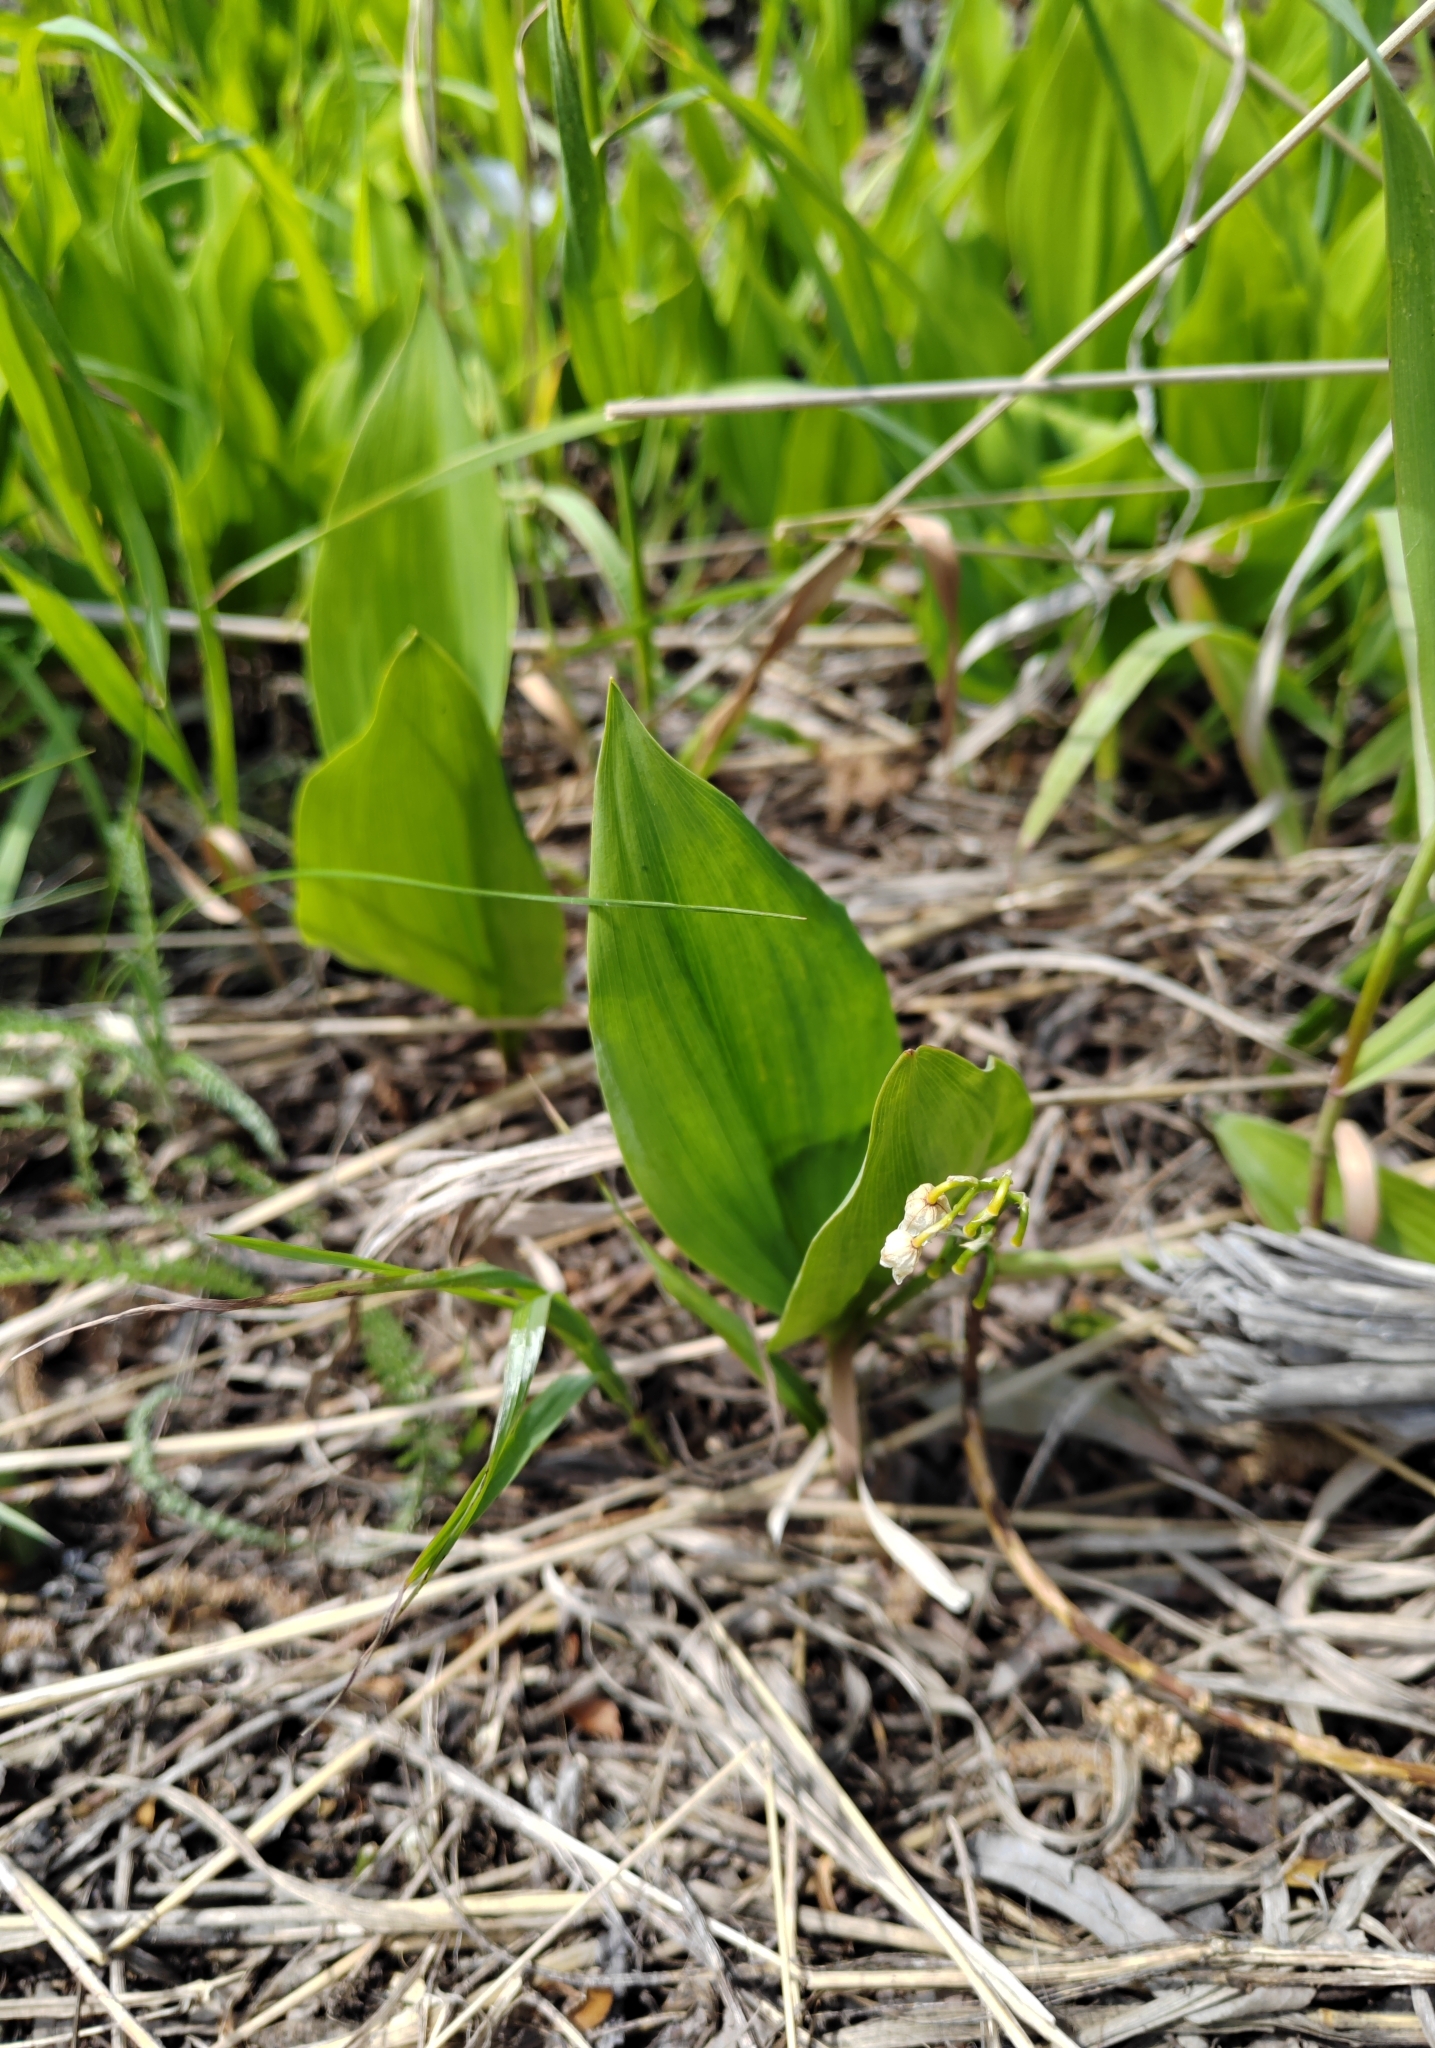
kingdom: Plantae
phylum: Tracheophyta
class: Liliopsida
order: Asparagales
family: Asparagaceae
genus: Convallaria
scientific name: Convallaria majalis
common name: Lily-of-the-valley
